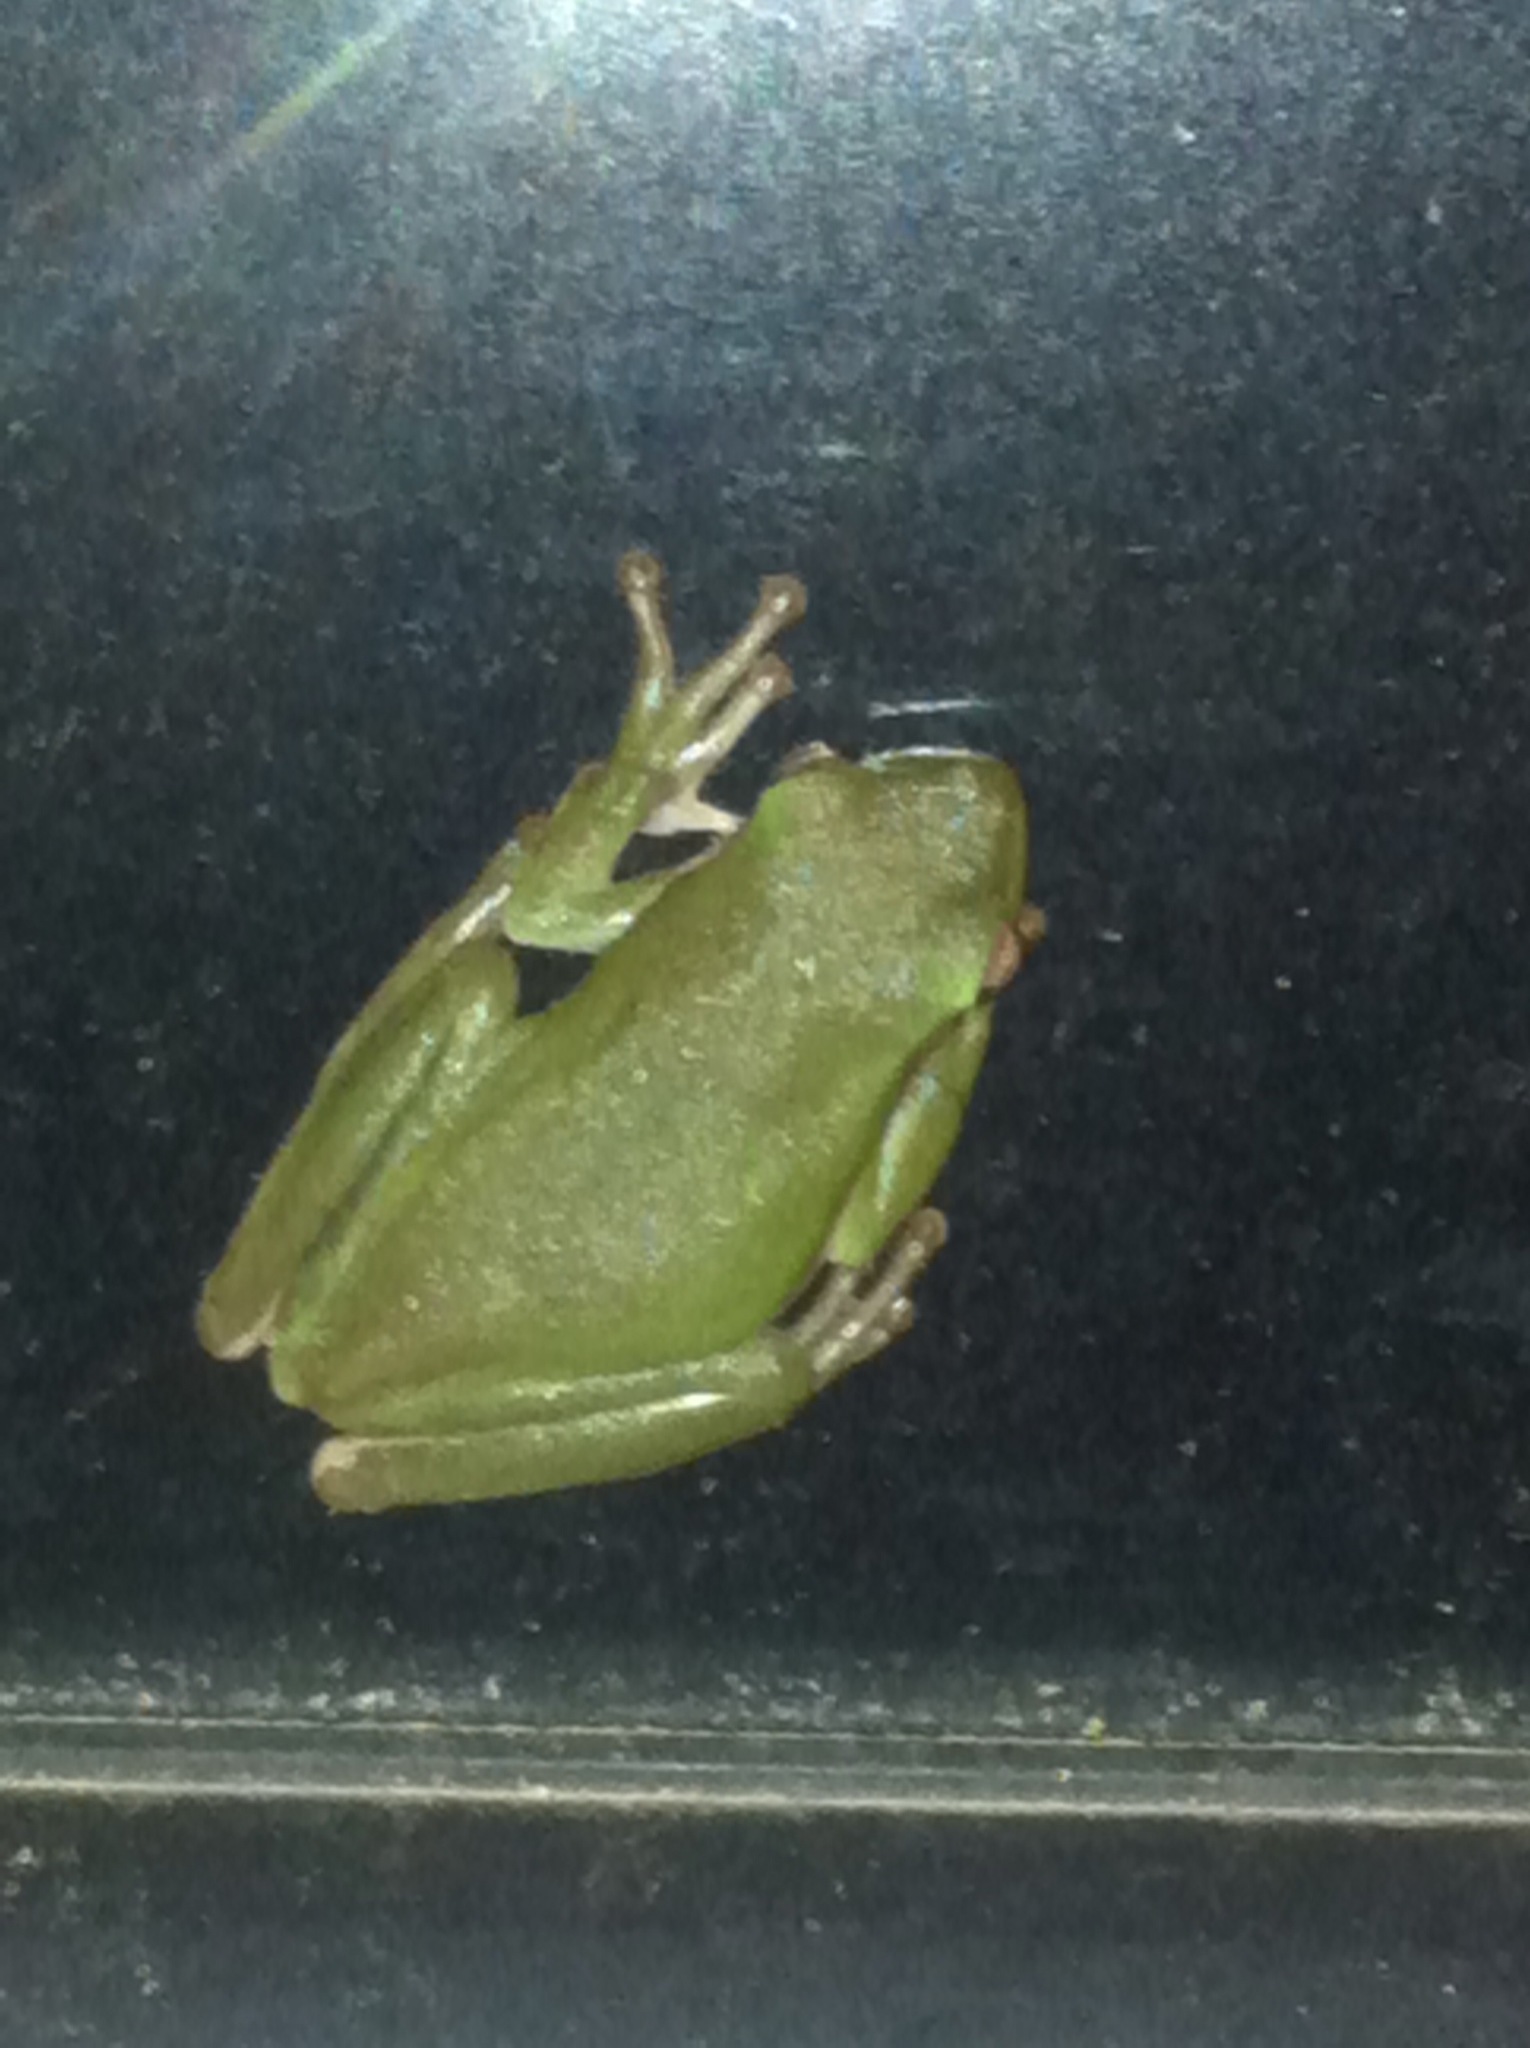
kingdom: Animalia
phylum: Chordata
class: Amphibia
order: Anura
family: Hylidae
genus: Dryophytes
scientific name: Dryophytes cinereus
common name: Green treefrog
